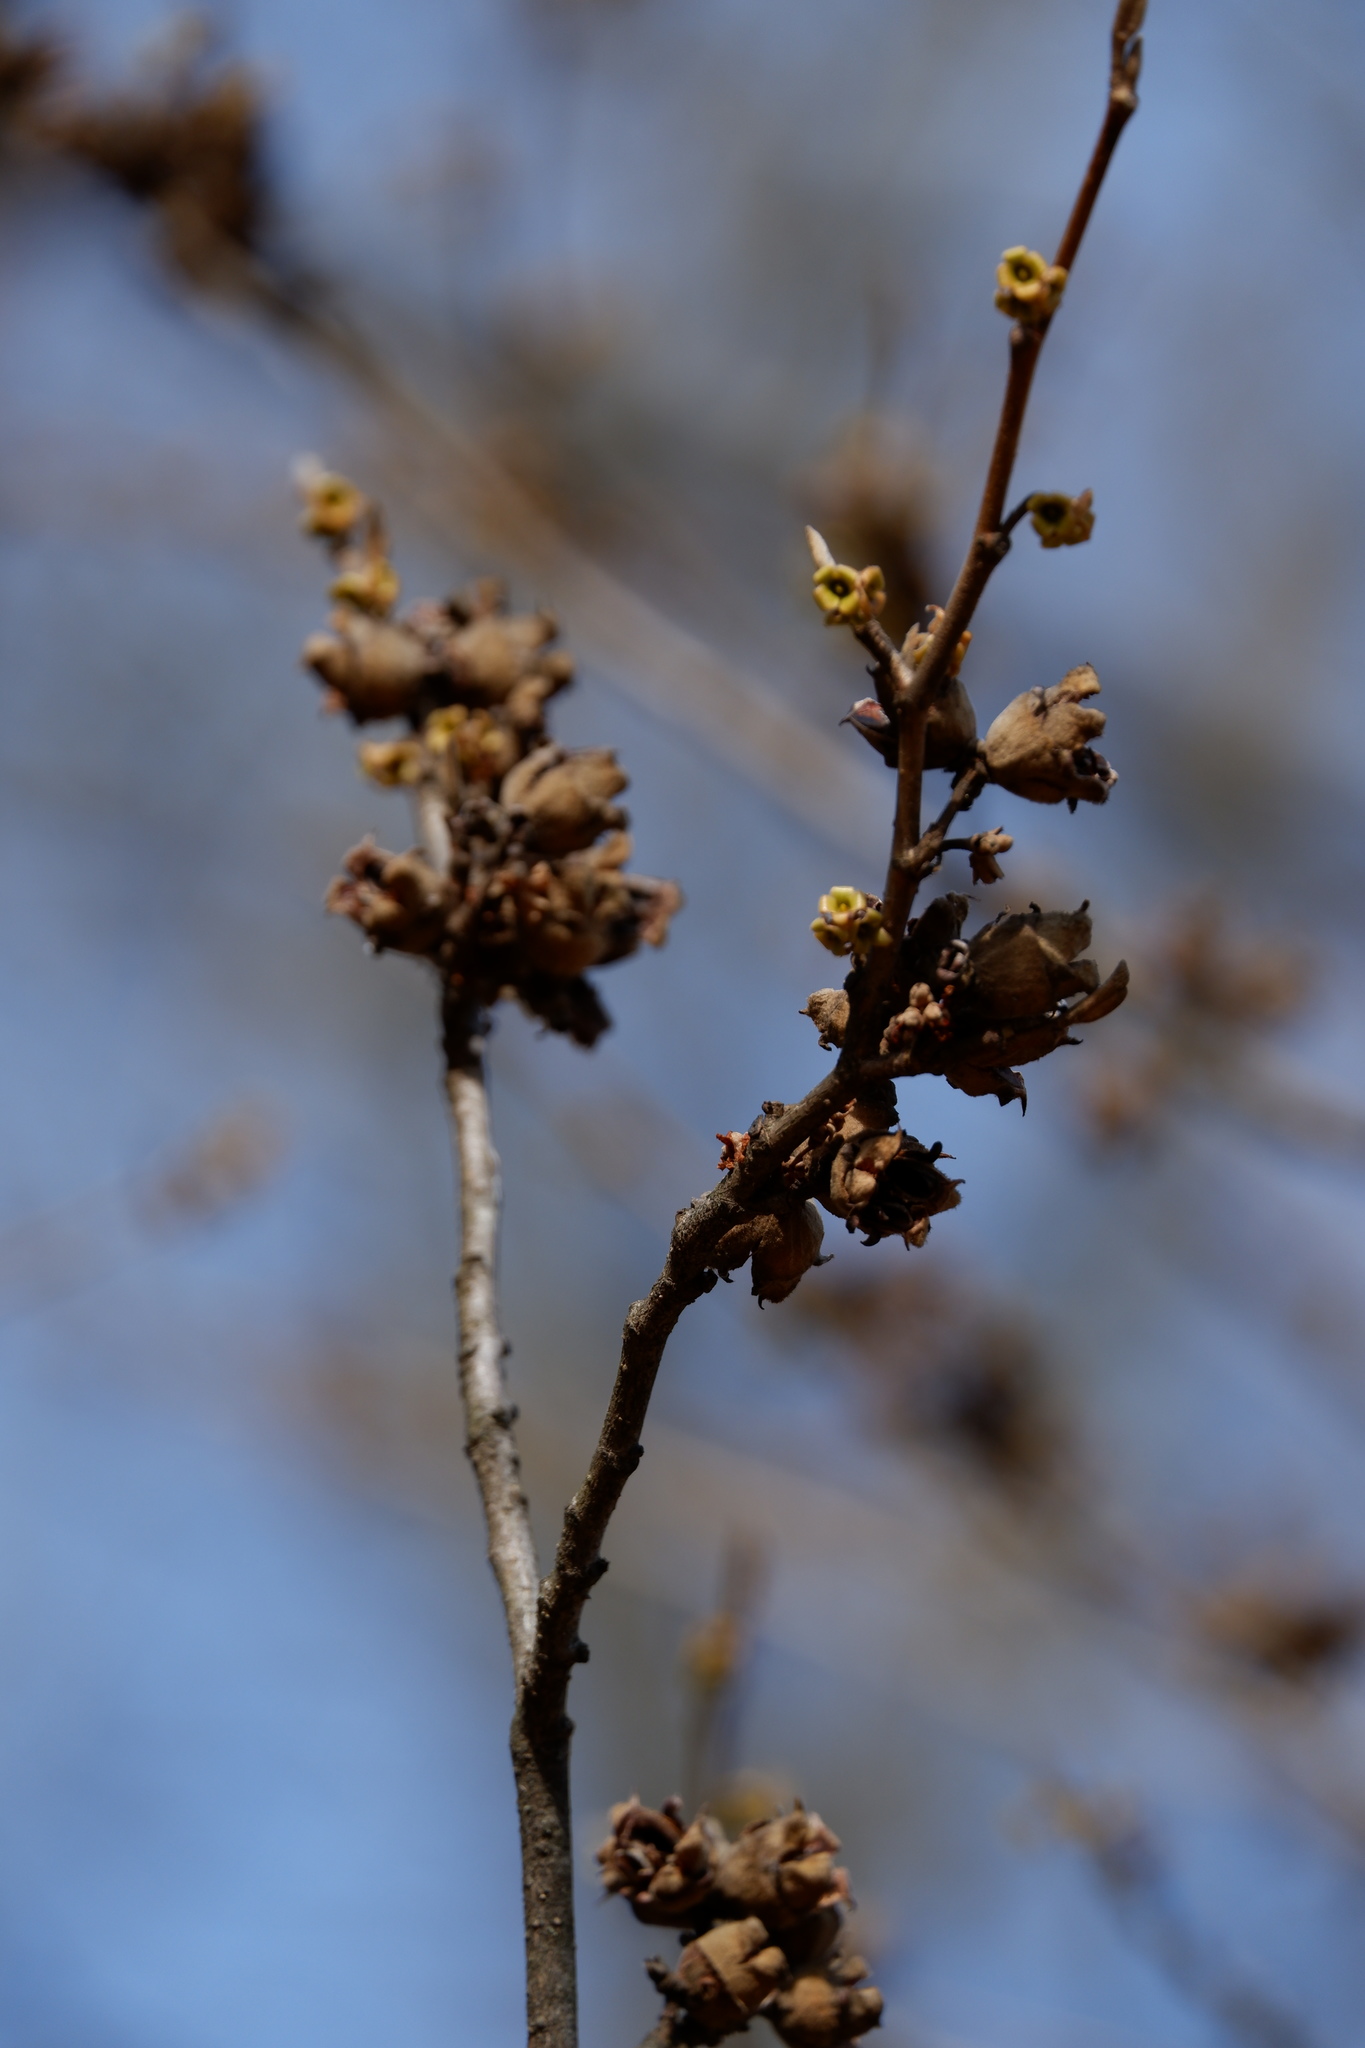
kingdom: Plantae
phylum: Tracheophyta
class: Magnoliopsida
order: Saxifragales
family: Hamamelidaceae
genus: Hamamelis
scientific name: Hamamelis virginiana
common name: Witch-hazel
